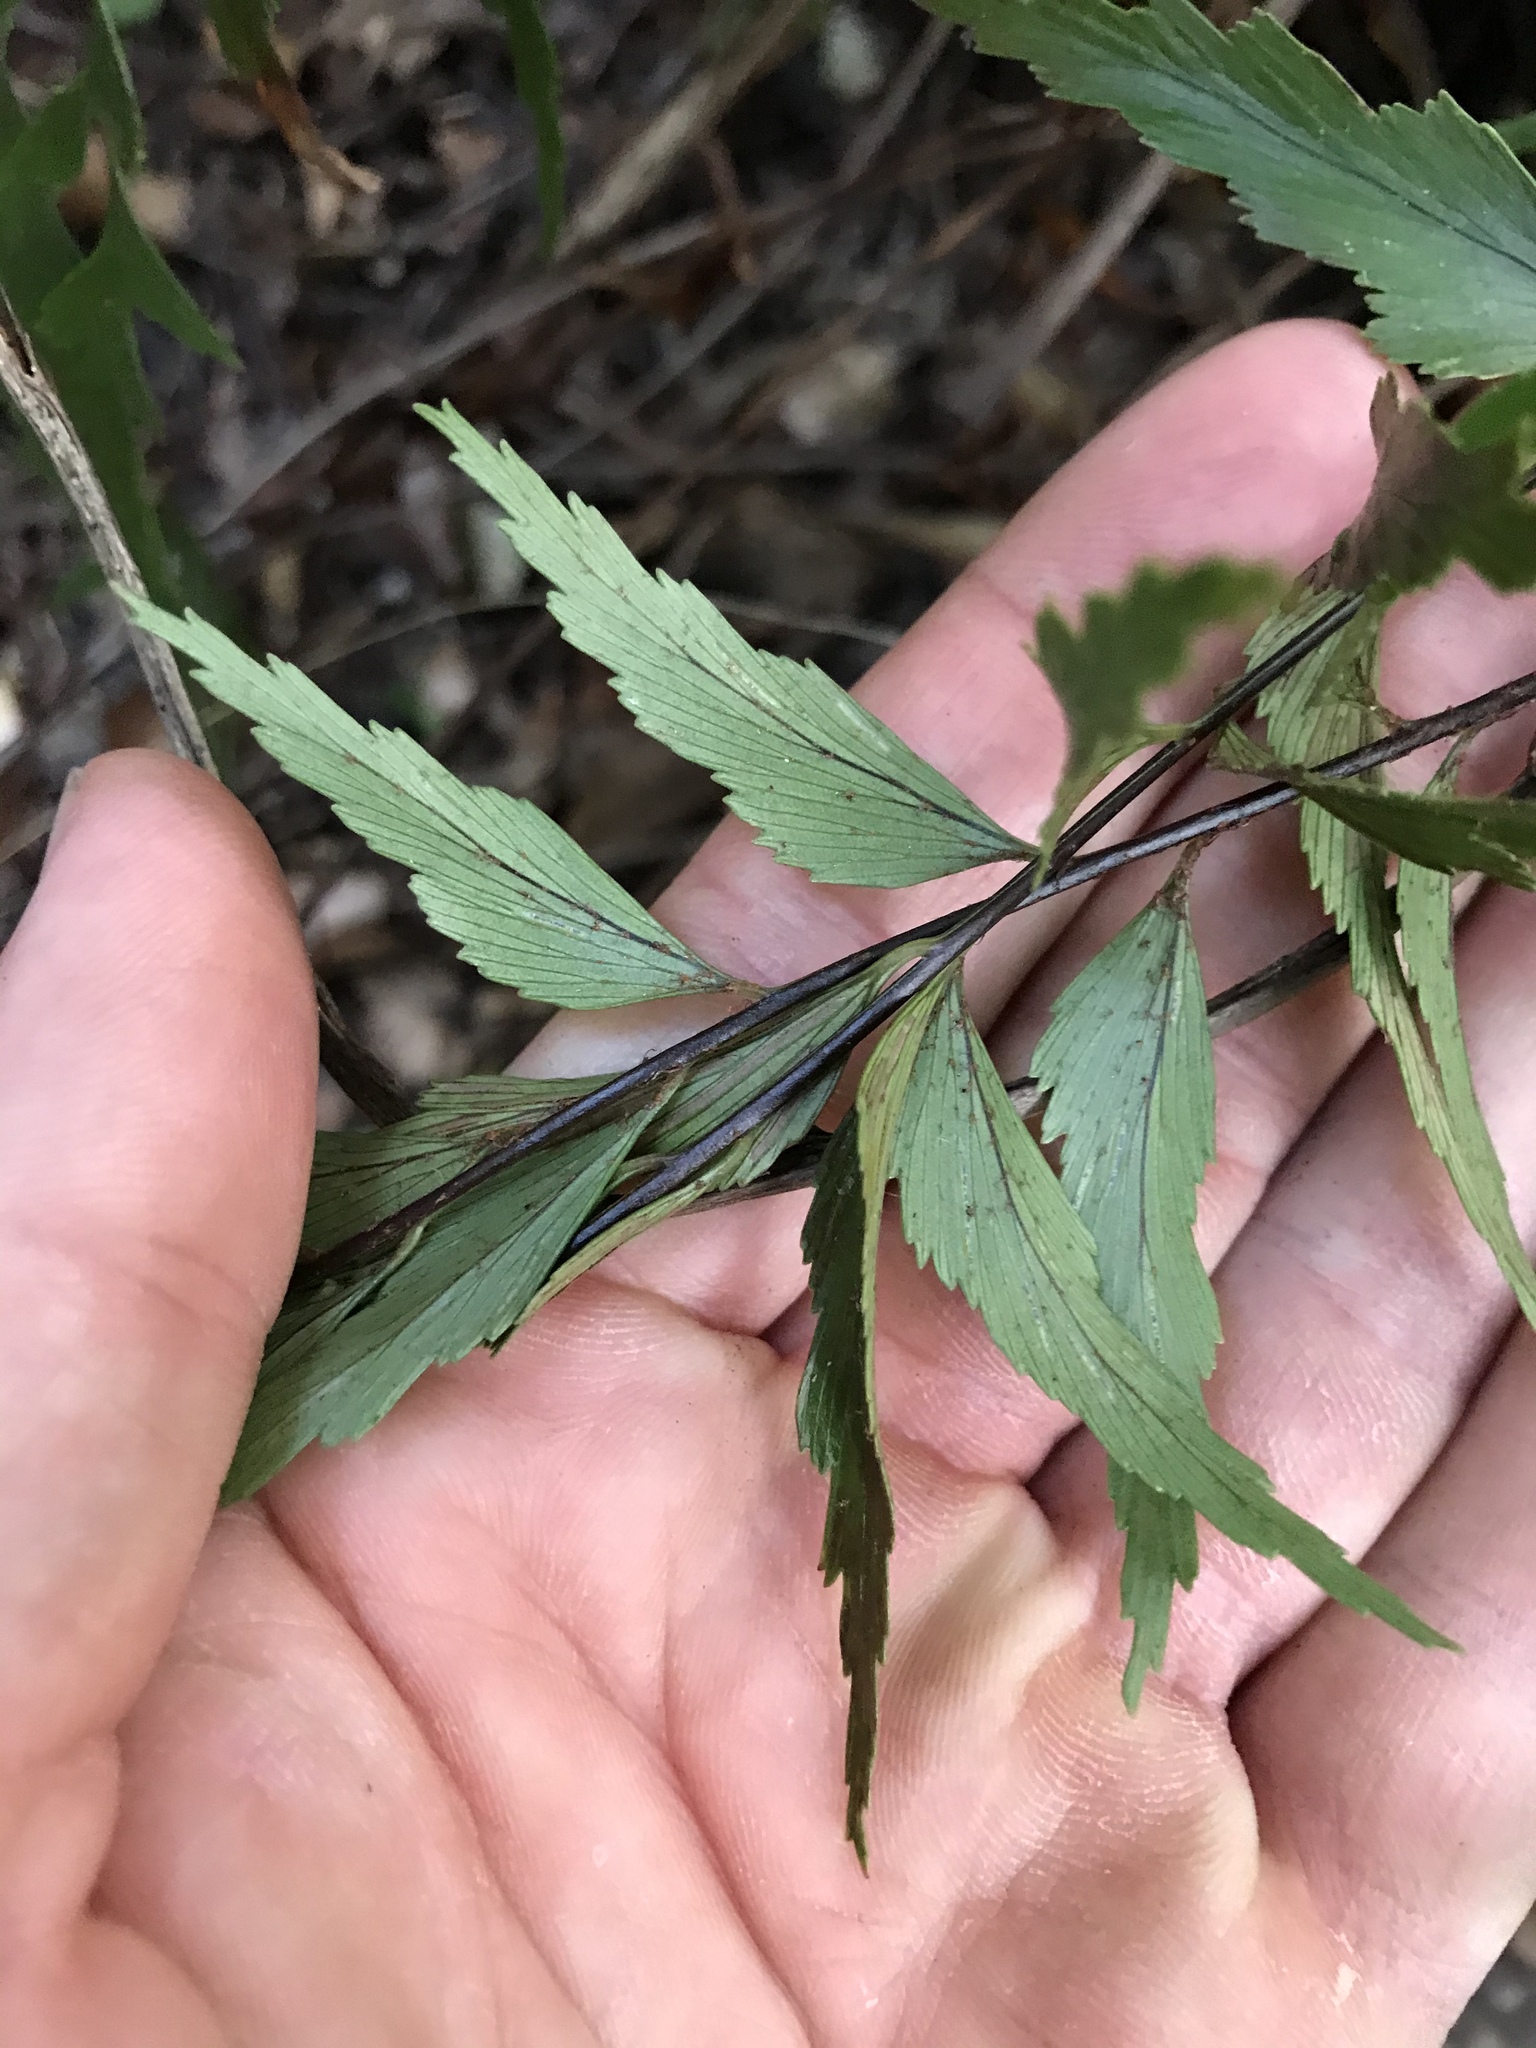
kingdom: Plantae
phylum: Tracheophyta
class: Polypodiopsida
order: Polypodiales
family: Aspleniaceae
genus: Asplenium
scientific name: Asplenium polyodon
